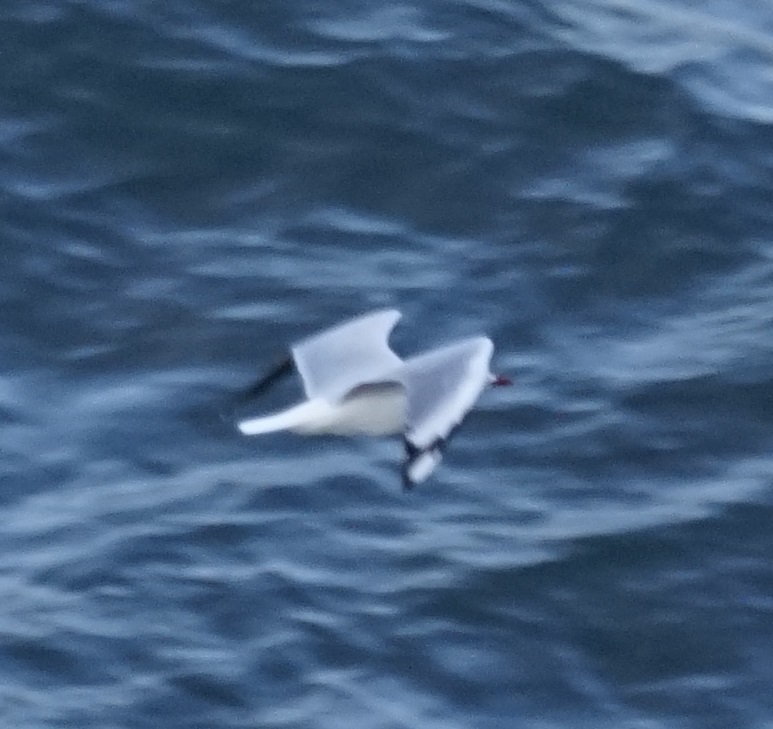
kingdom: Animalia
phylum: Chordata
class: Aves
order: Charadriiformes
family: Laridae
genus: Chroicocephalus
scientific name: Chroicocephalus novaehollandiae
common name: Silver gull
